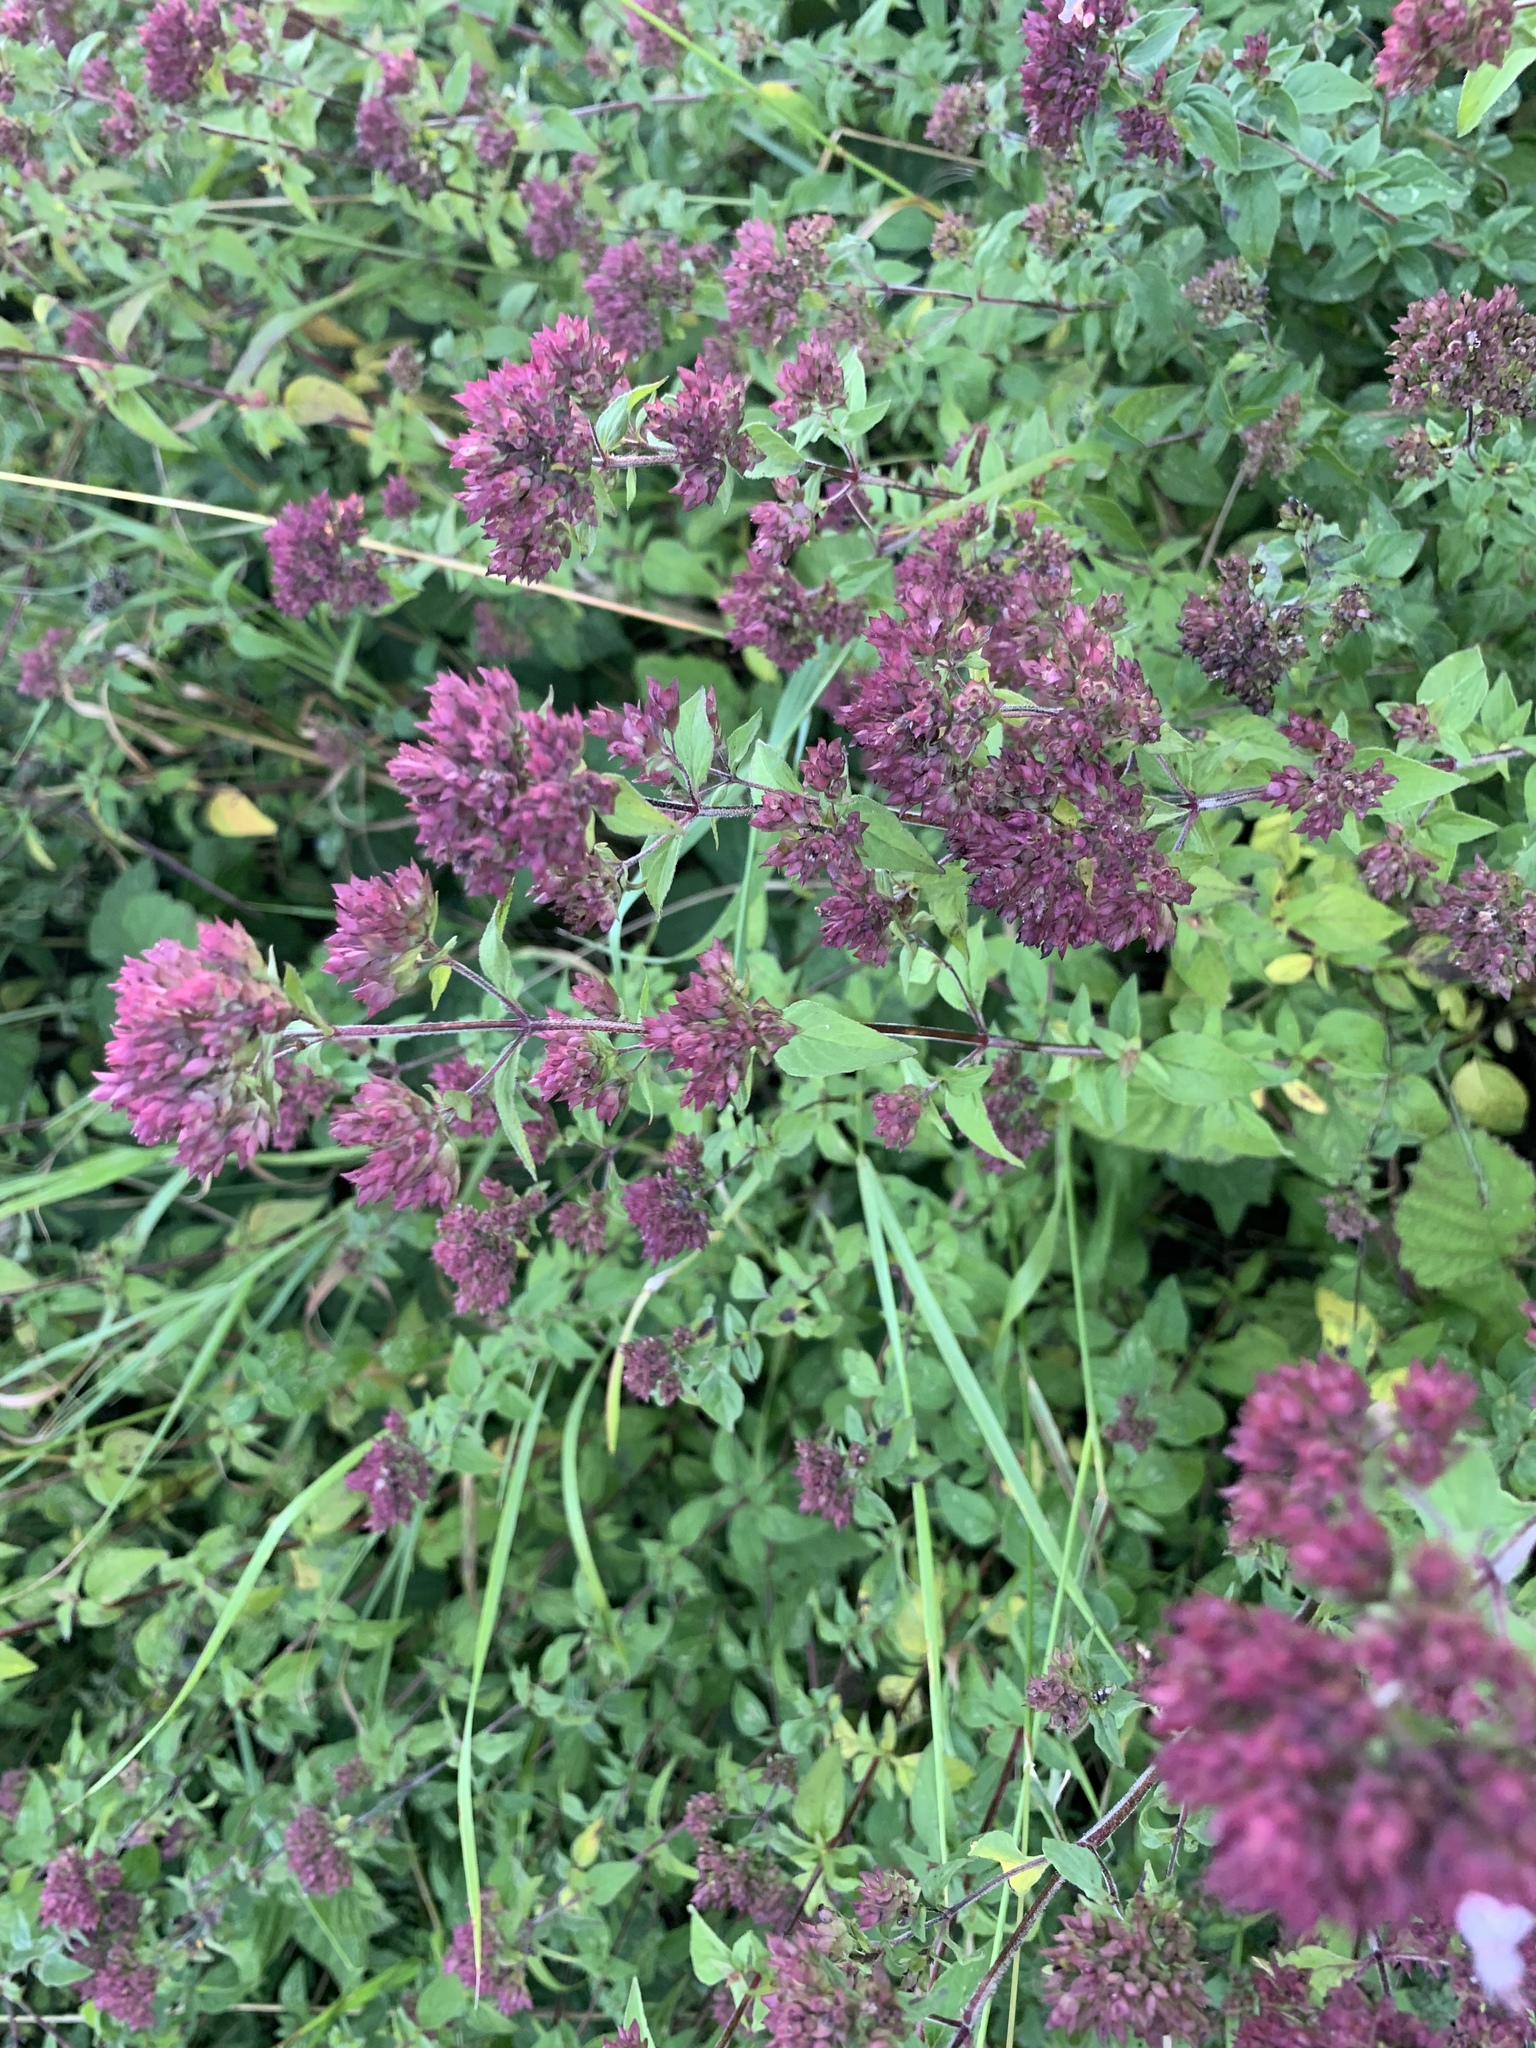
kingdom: Plantae
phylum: Tracheophyta
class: Magnoliopsida
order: Lamiales
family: Lamiaceae
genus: Origanum
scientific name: Origanum vulgare
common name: Wild marjoram
